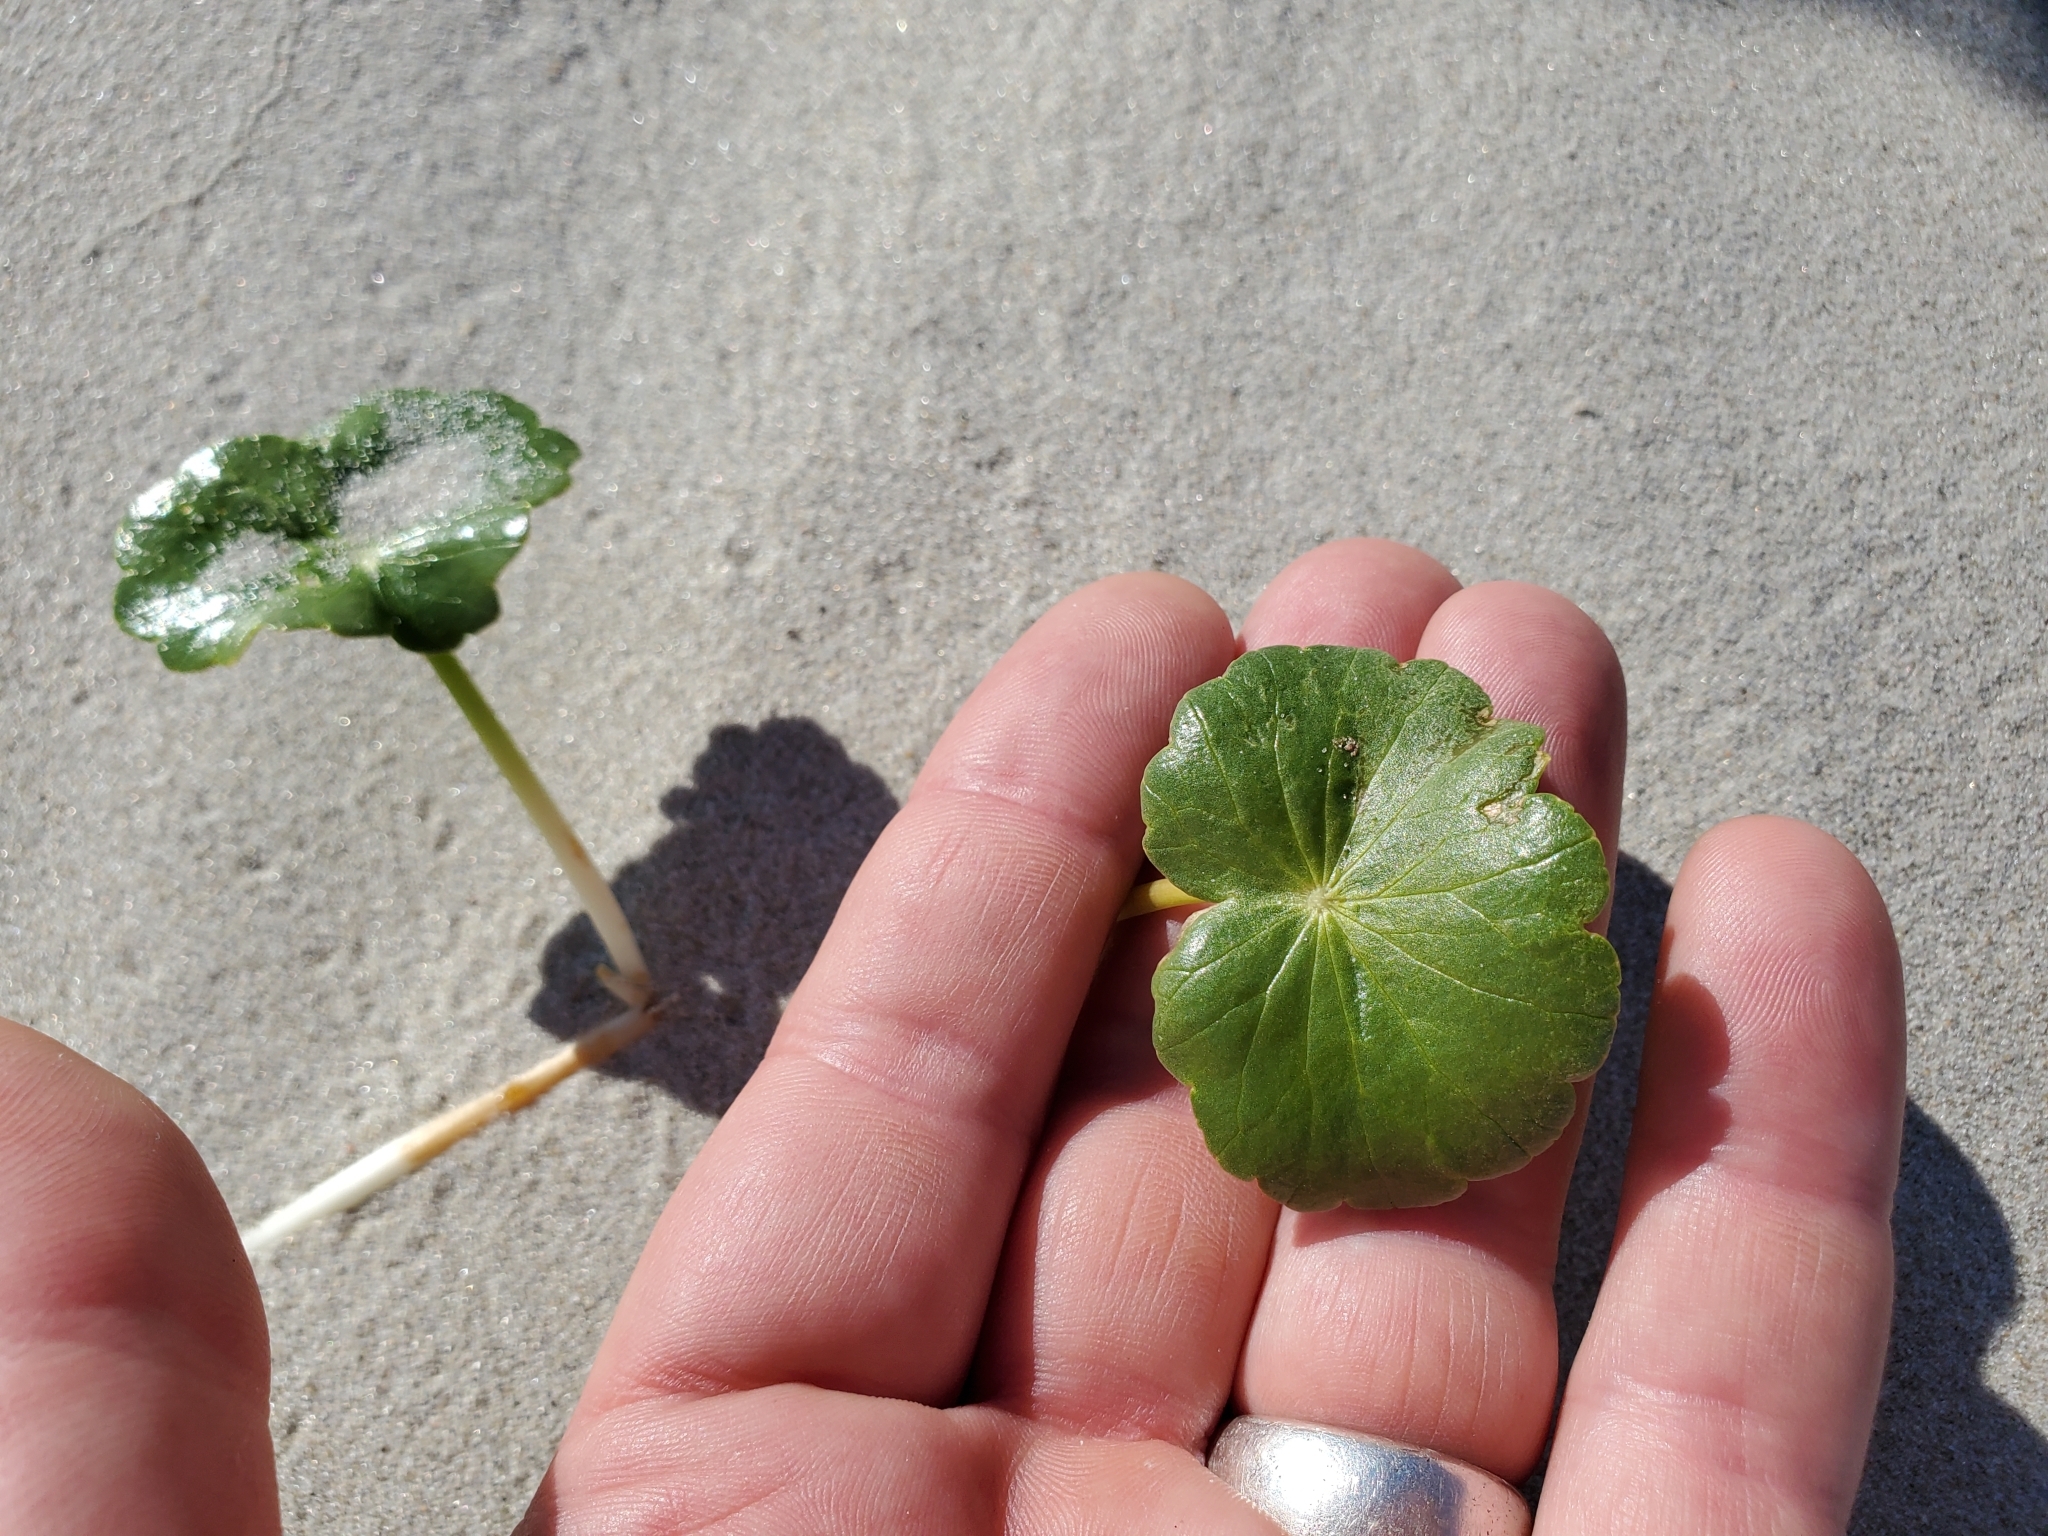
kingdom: Plantae
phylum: Tracheophyta
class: Magnoliopsida
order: Apiales
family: Araliaceae
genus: Hydrocotyle
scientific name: Hydrocotyle bonariensis
